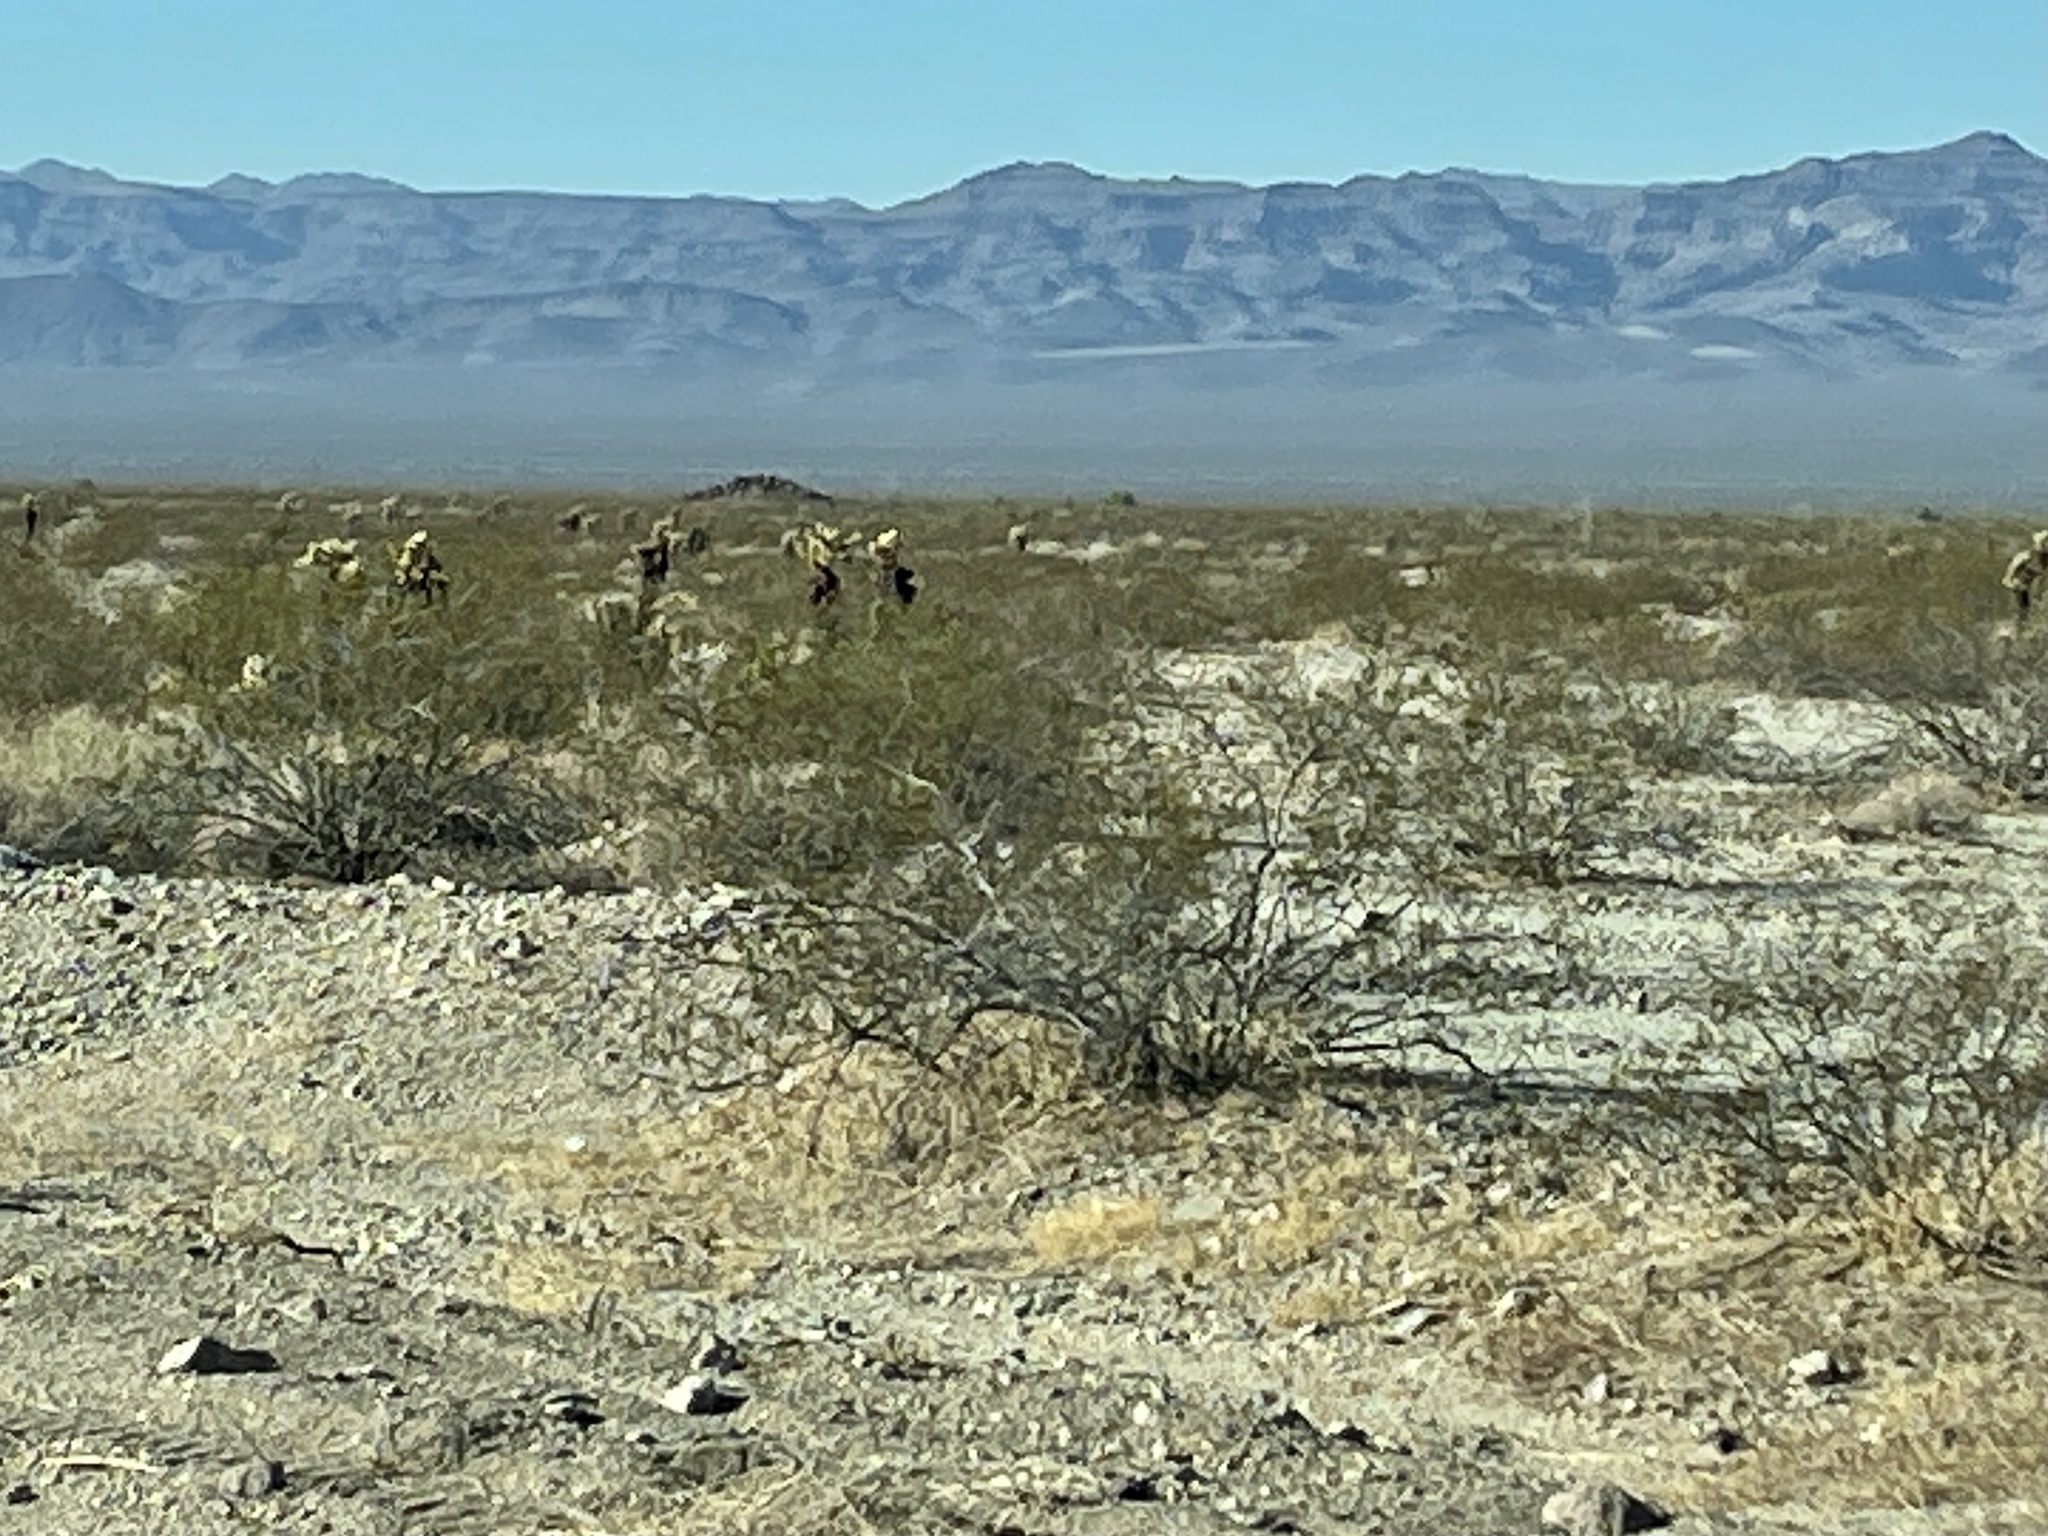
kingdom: Plantae
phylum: Tracheophyta
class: Magnoliopsida
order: Zygophyllales
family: Zygophyllaceae
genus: Larrea
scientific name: Larrea tridentata
